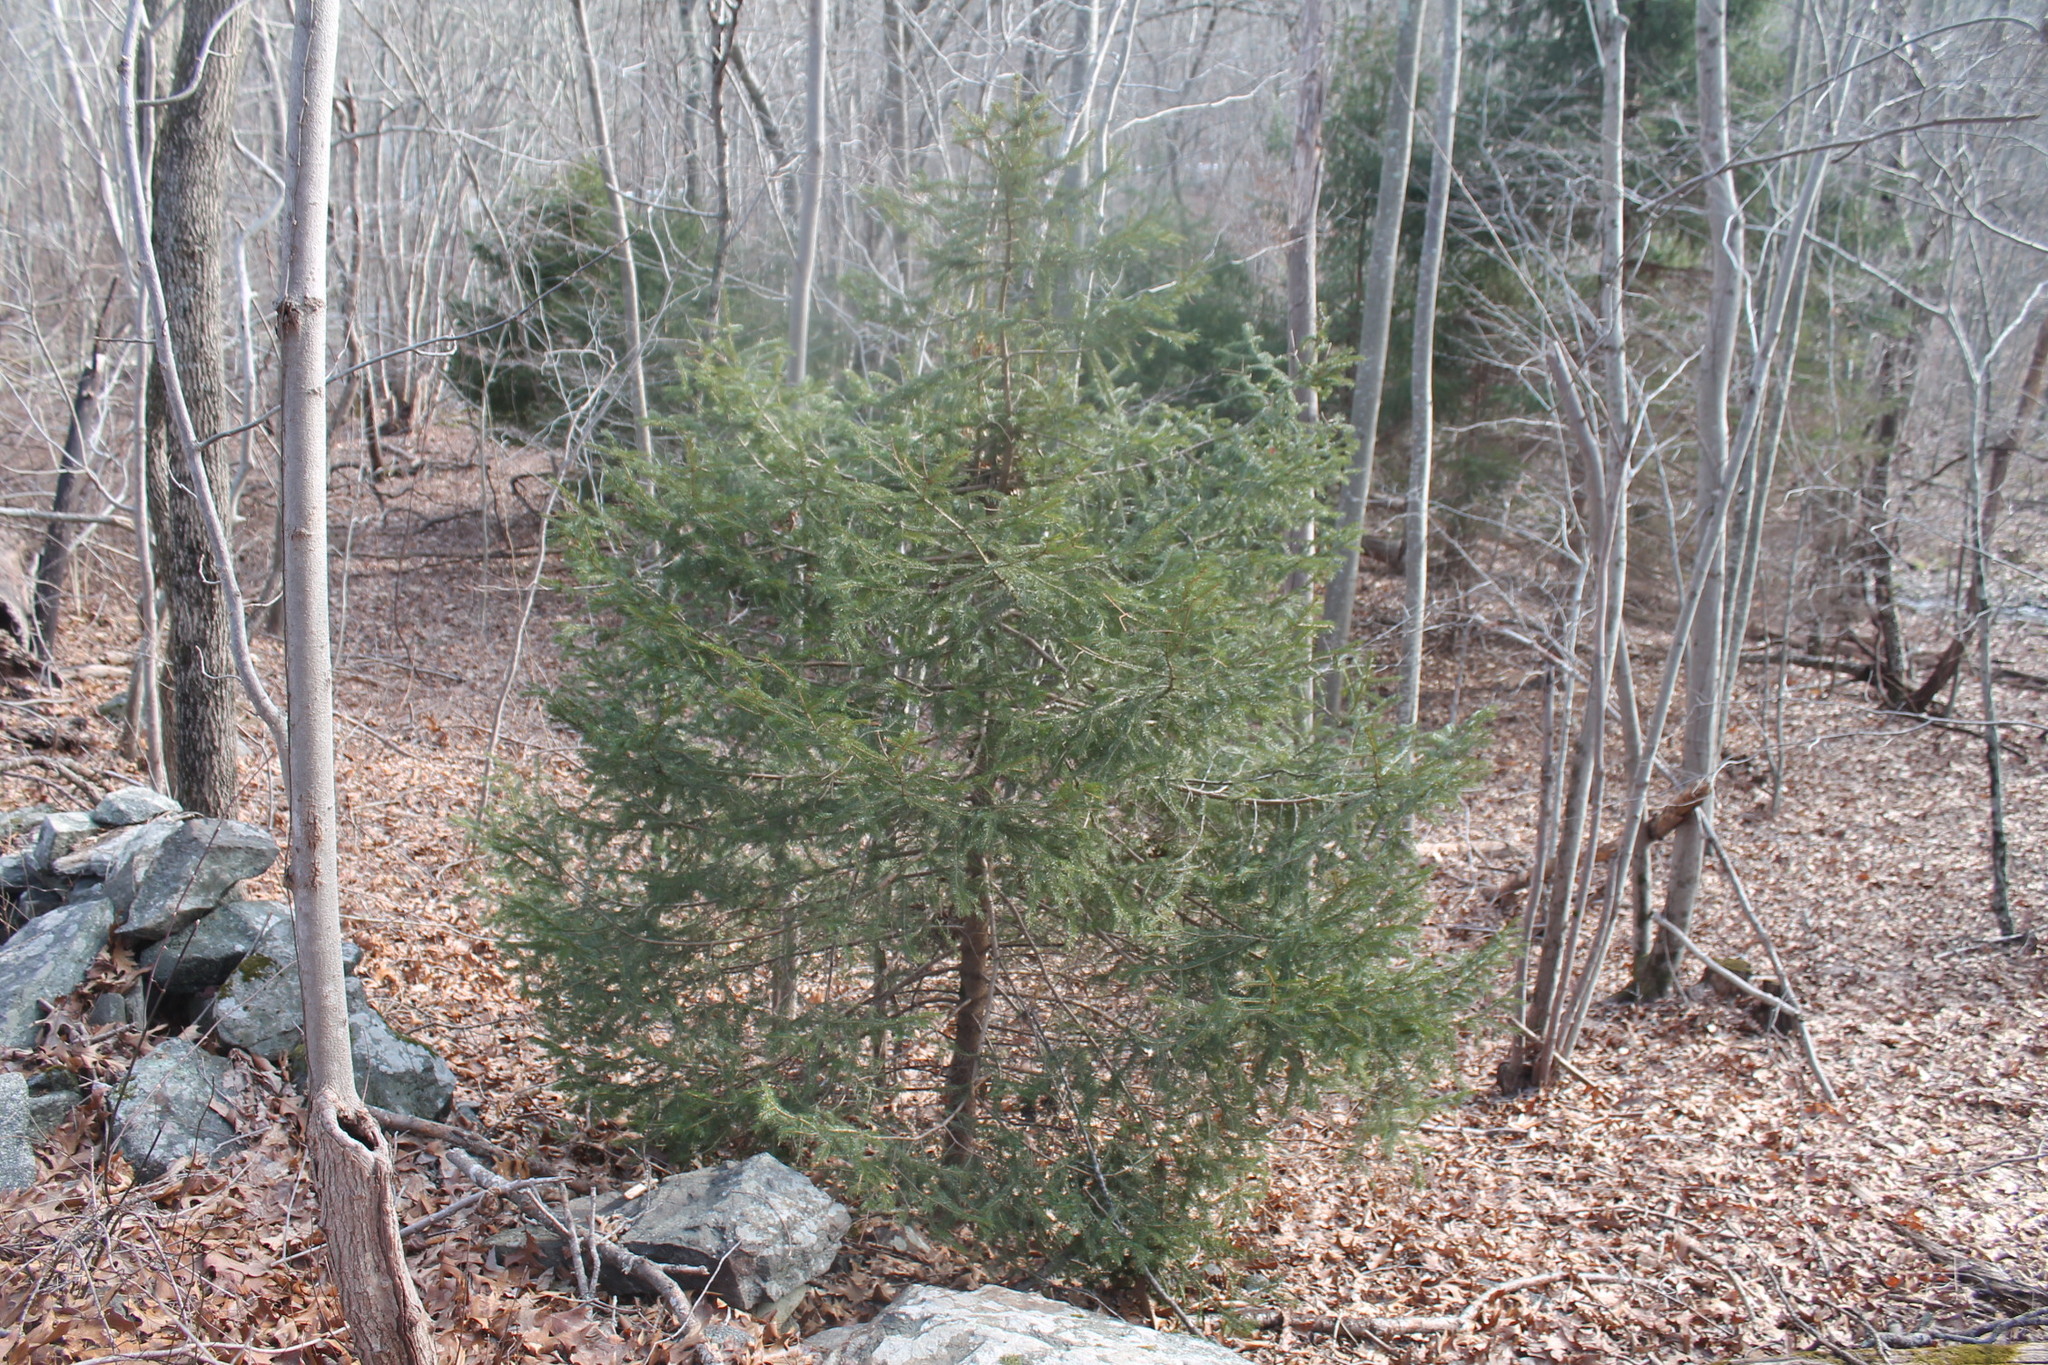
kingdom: Plantae
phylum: Tracheophyta
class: Pinopsida
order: Pinales
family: Pinaceae
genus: Picea
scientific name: Picea abies
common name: Norway spruce
